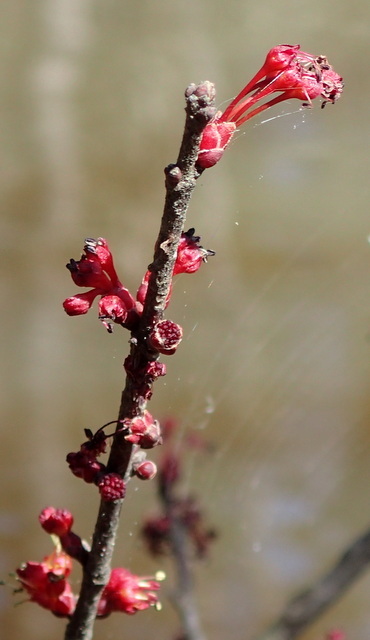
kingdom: Plantae
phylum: Tracheophyta
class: Magnoliopsida
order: Sapindales
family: Sapindaceae
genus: Acer
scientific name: Acer rubrum
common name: Red maple
